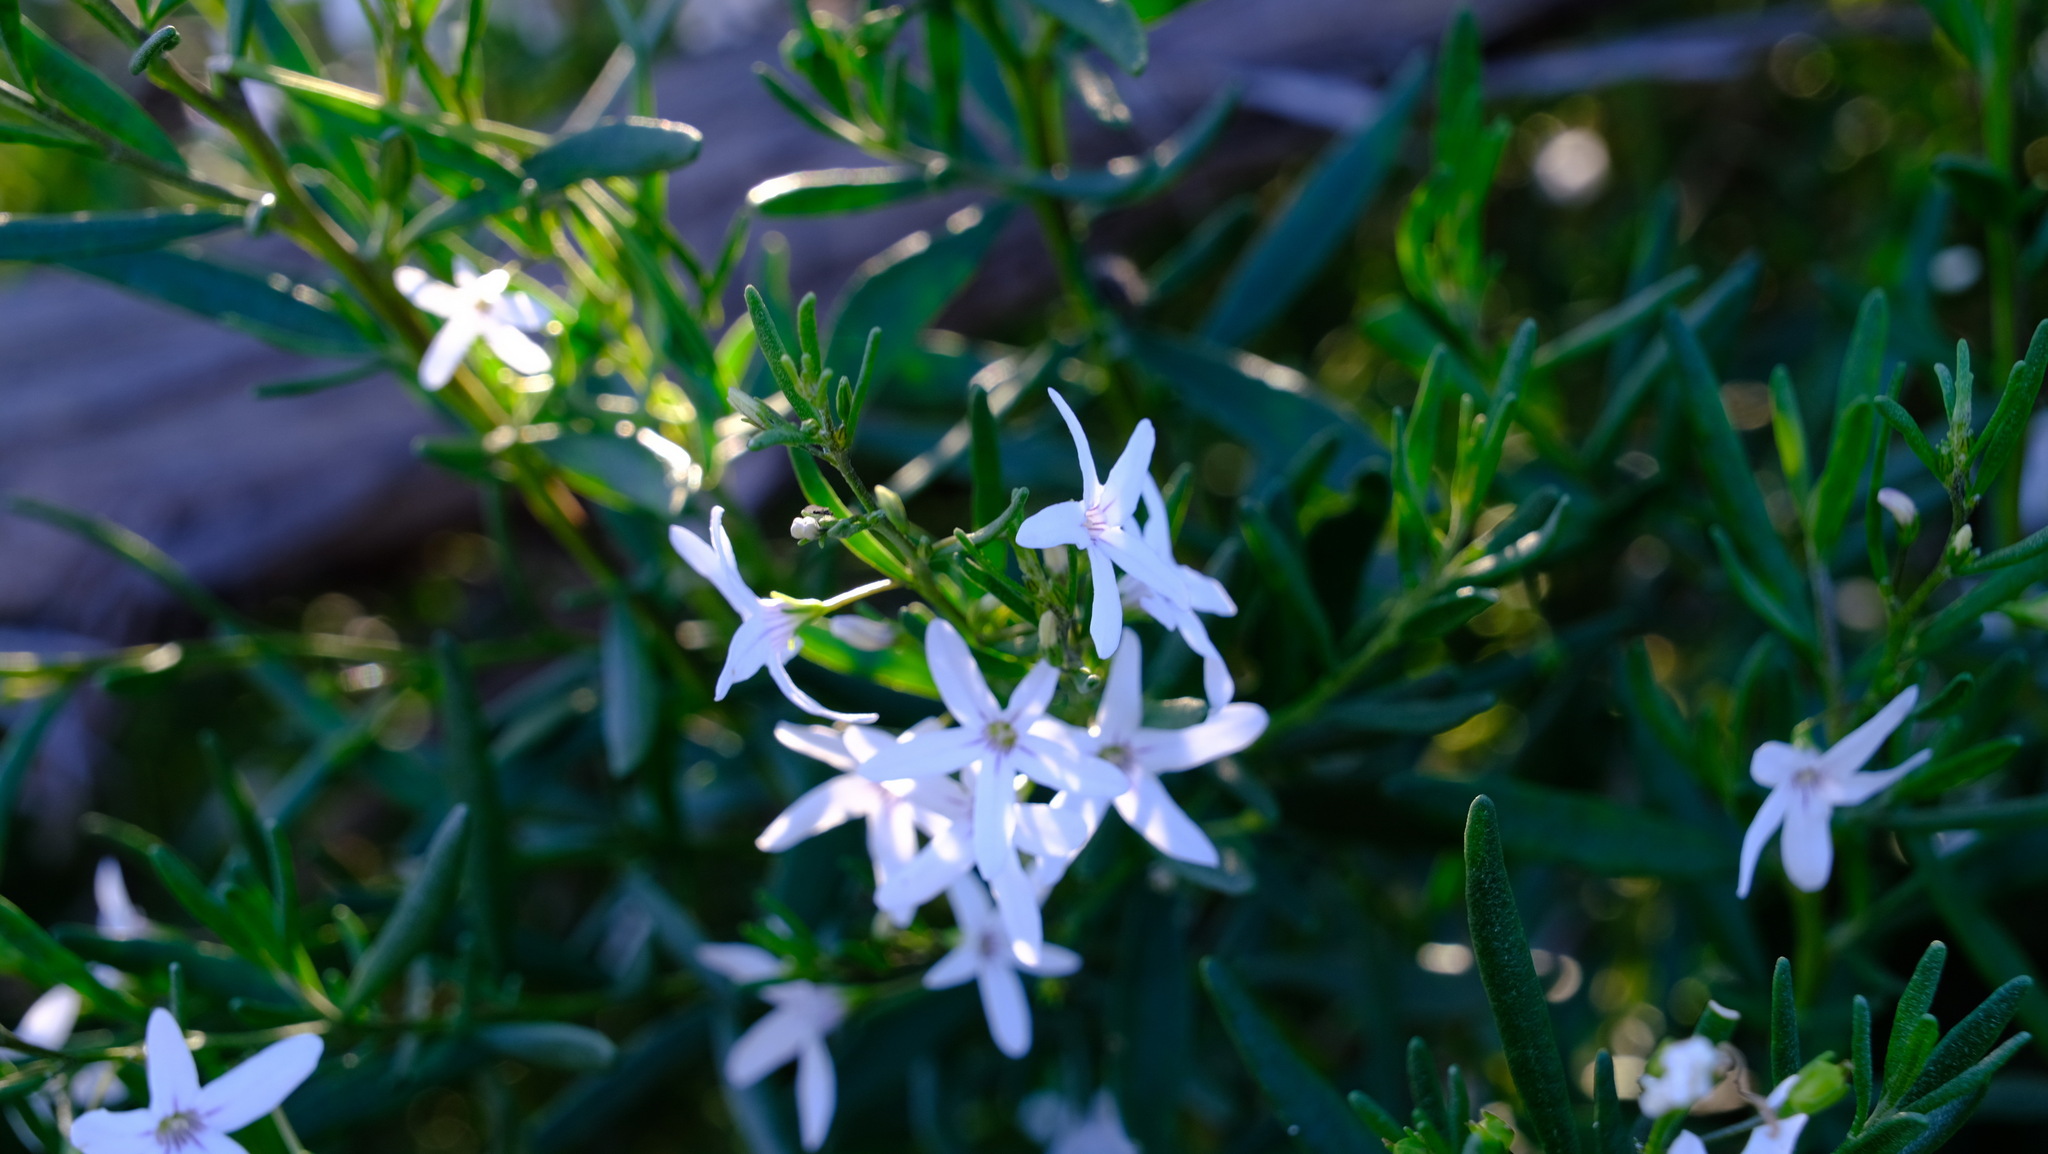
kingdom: Plantae
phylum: Tracheophyta
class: Magnoliopsida
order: Solanales
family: Solanaceae
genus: Cyphanthera
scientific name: Cyphanthera racemosa
